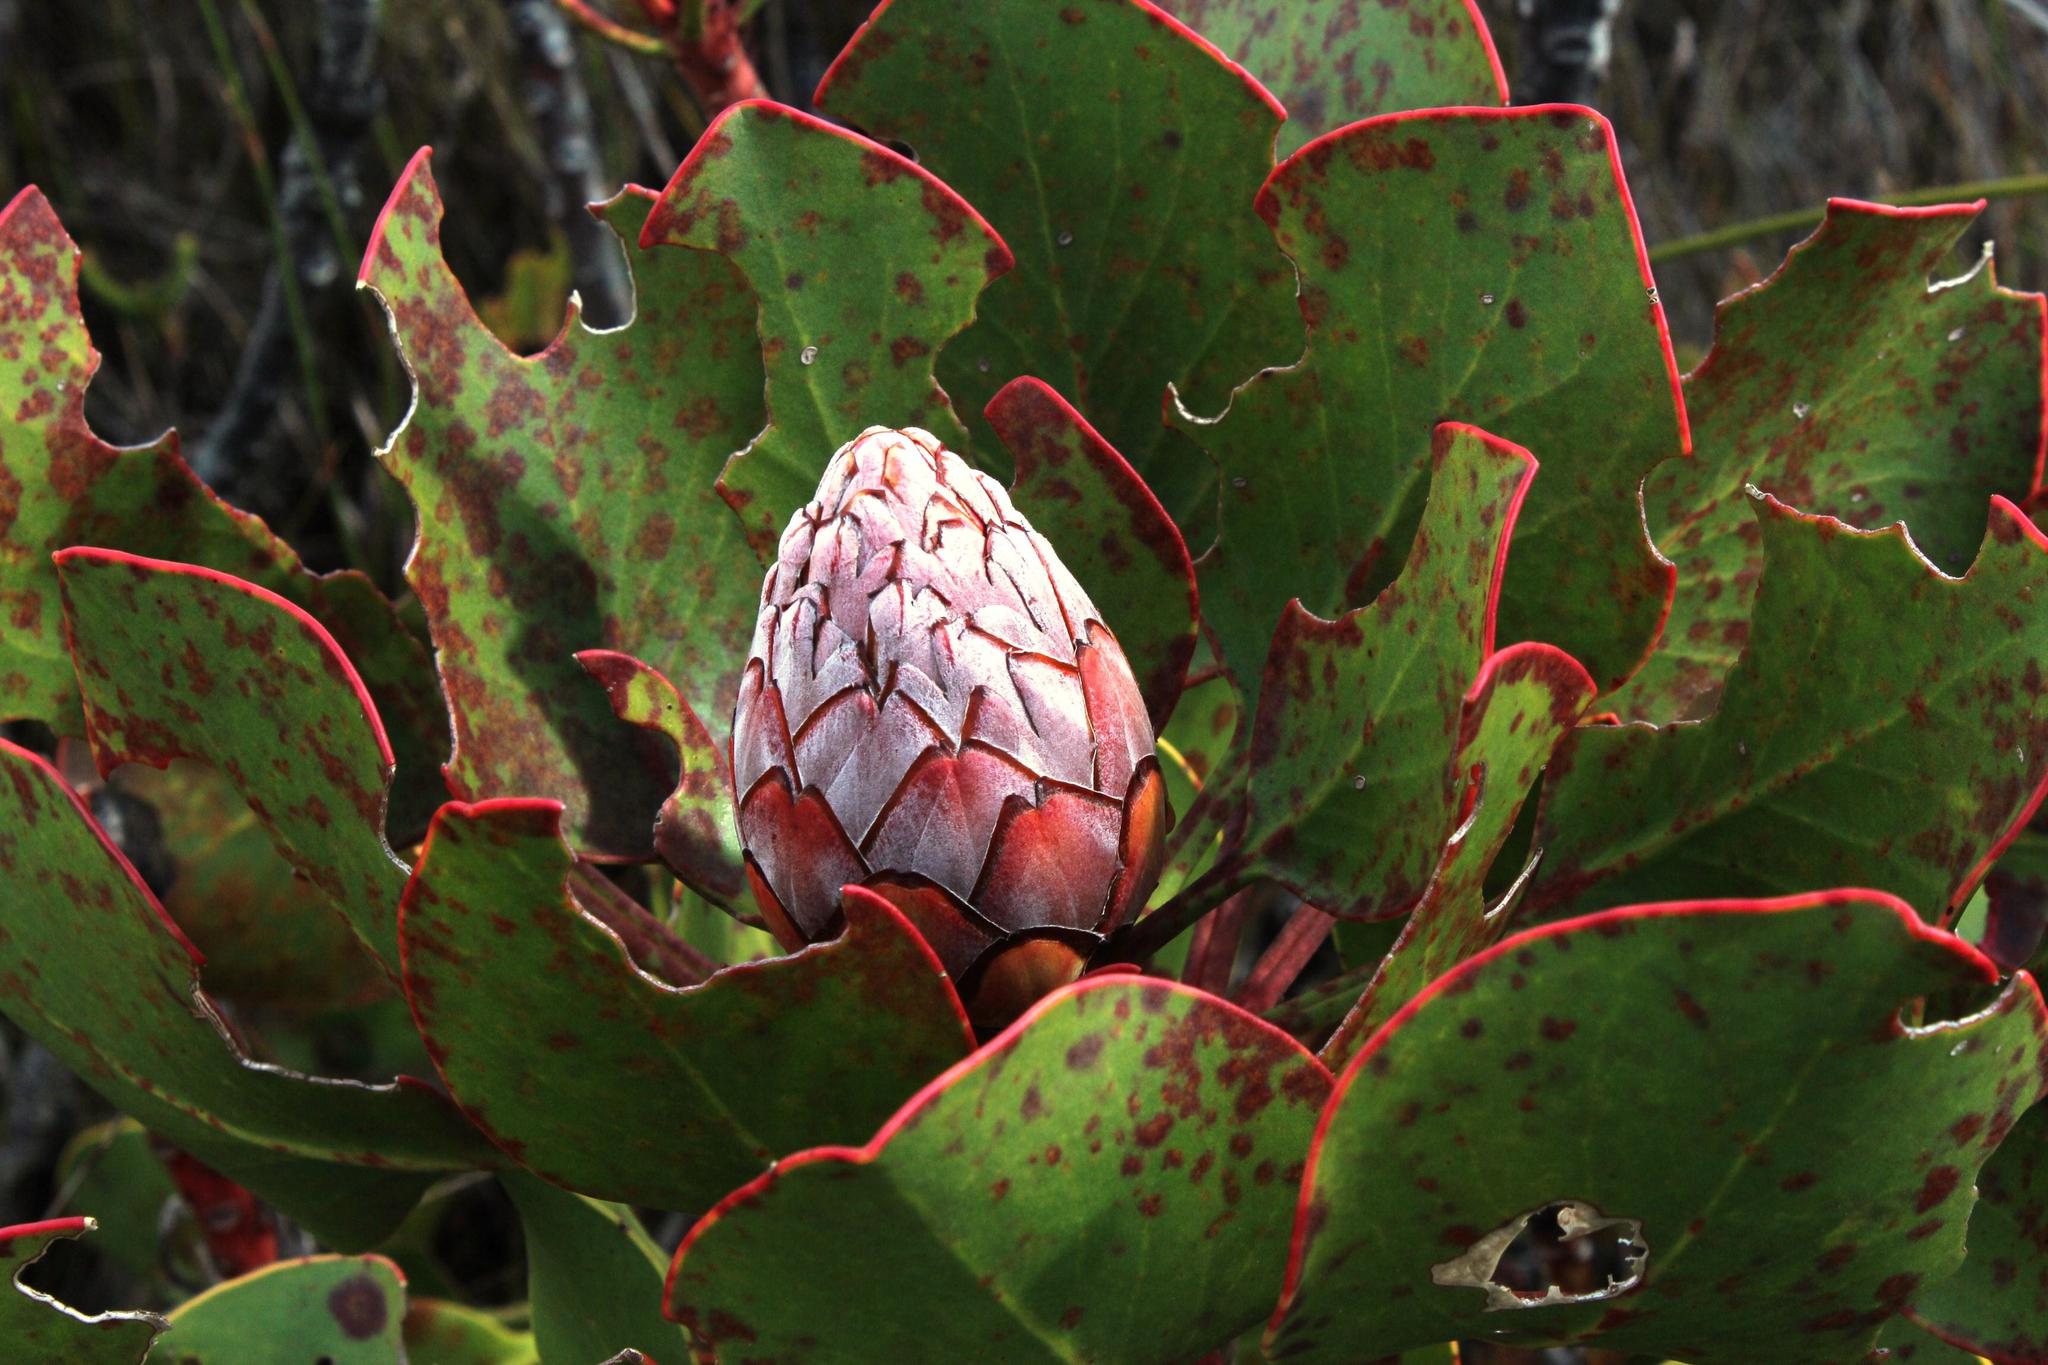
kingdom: Plantae
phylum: Tracheophyta
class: Magnoliopsida
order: Proteales
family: Proteaceae
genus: Protea
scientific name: Protea cynaroides
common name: King protea
